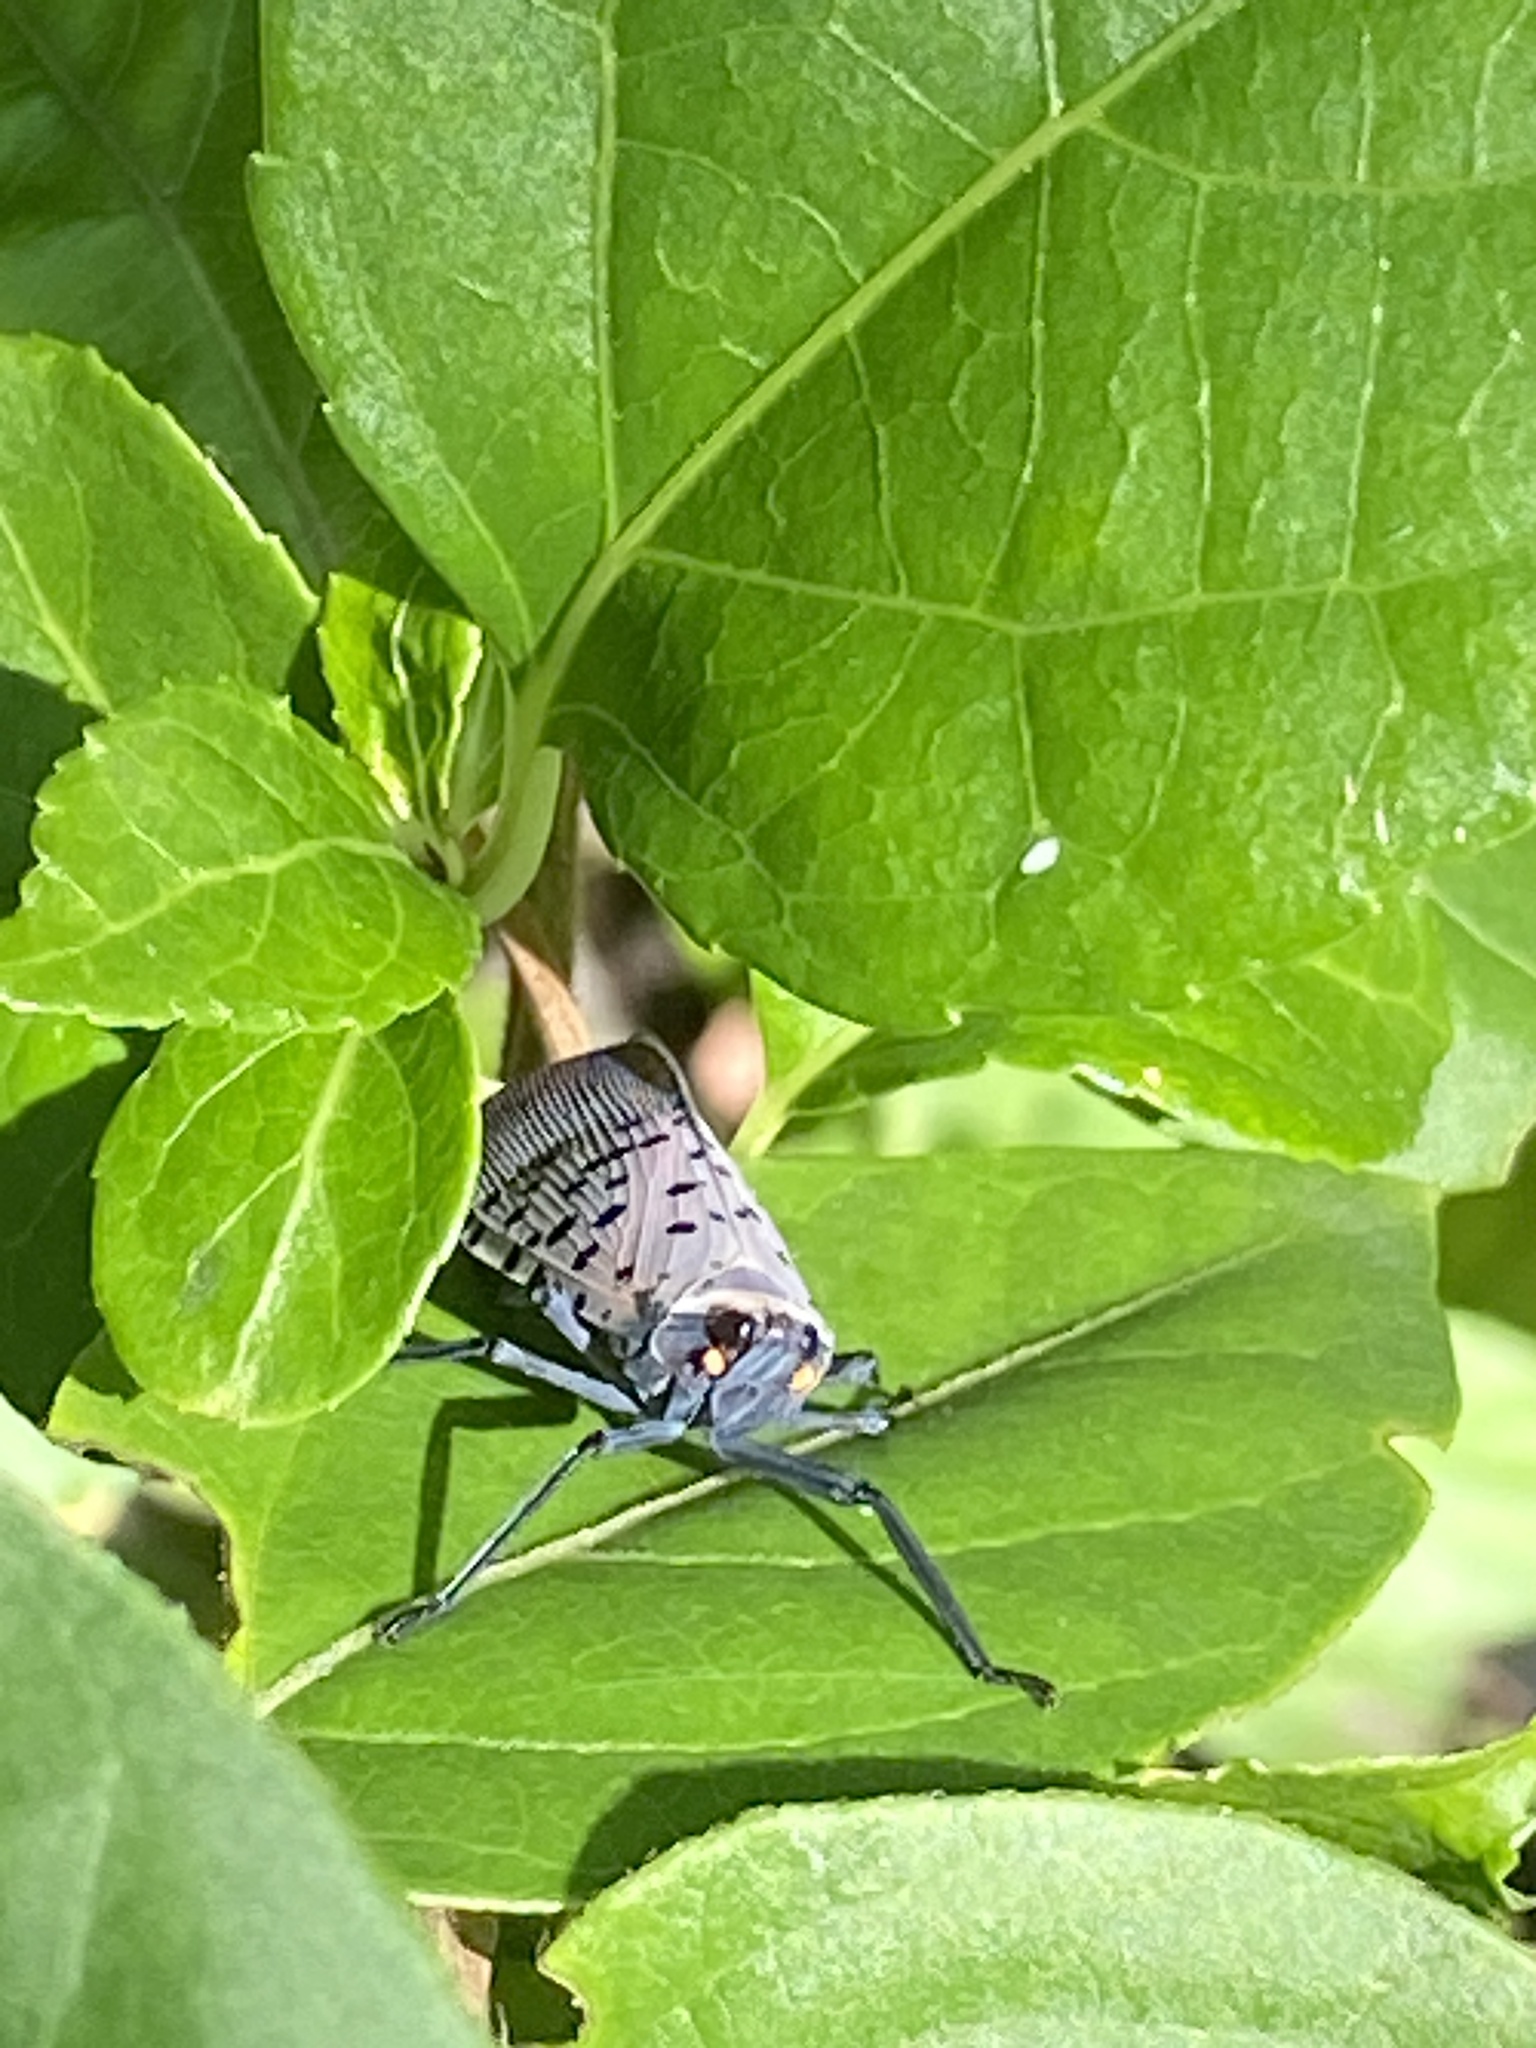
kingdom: Animalia
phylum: Arthropoda
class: Insecta
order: Hemiptera
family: Fulgoridae
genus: Lycorma
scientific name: Lycorma delicatula
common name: Spotted lanternfly
